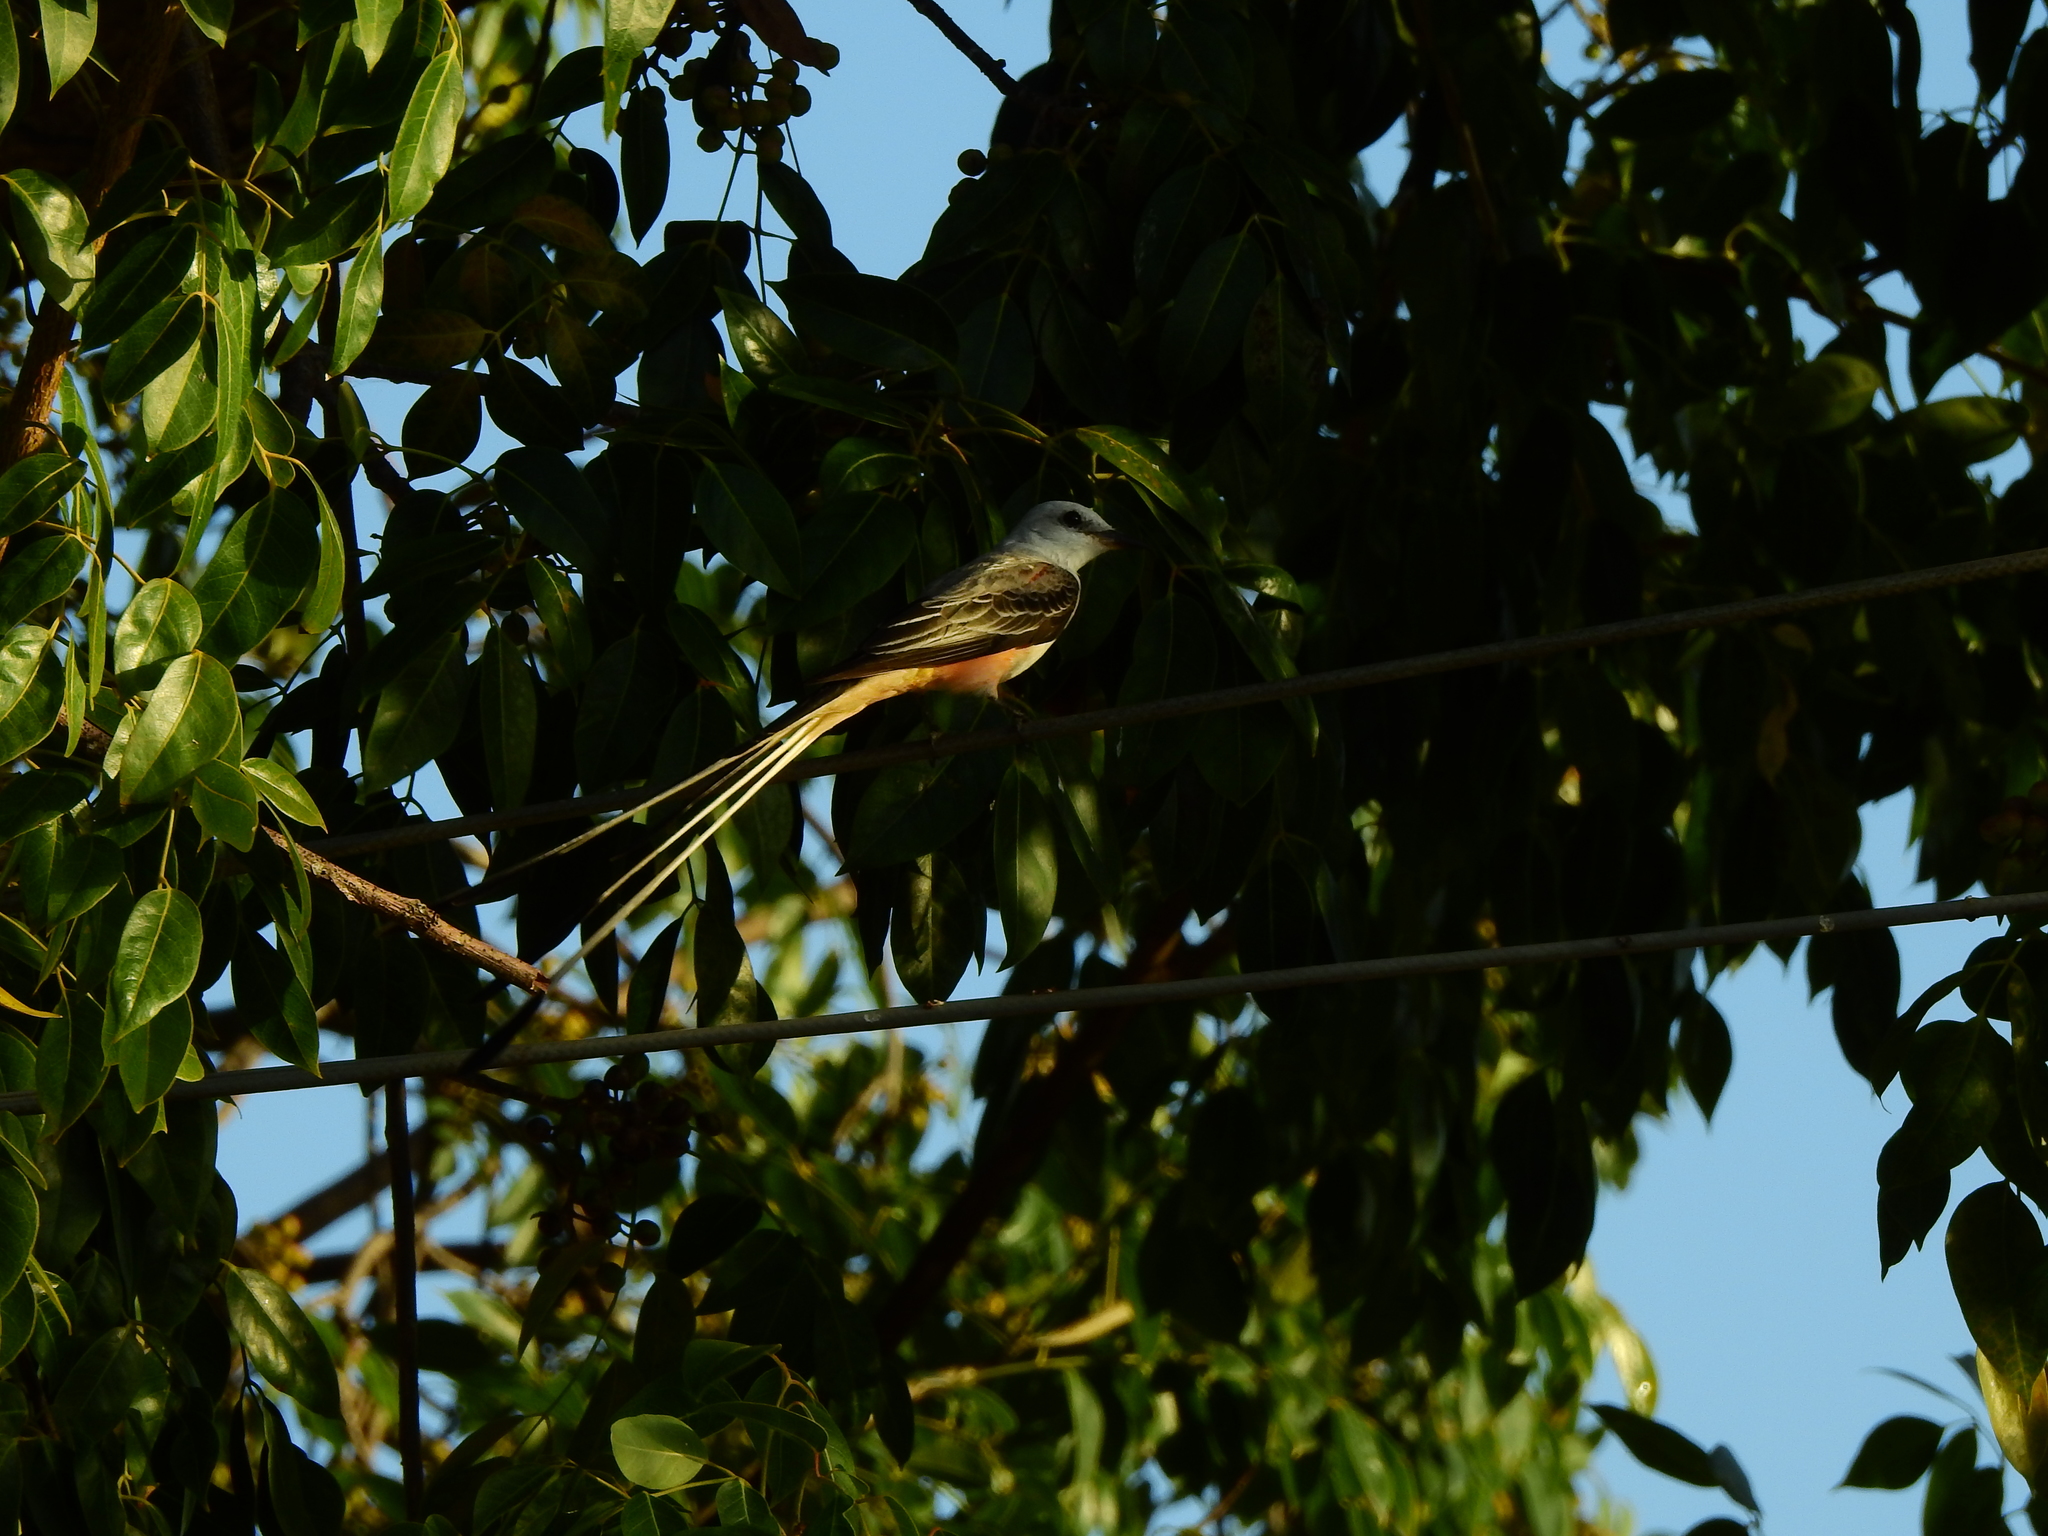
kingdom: Animalia
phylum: Chordata
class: Aves
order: Passeriformes
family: Tyrannidae
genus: Tyrannus
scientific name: Tyrannus forficatus
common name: Scissor-tailed flycatcher
